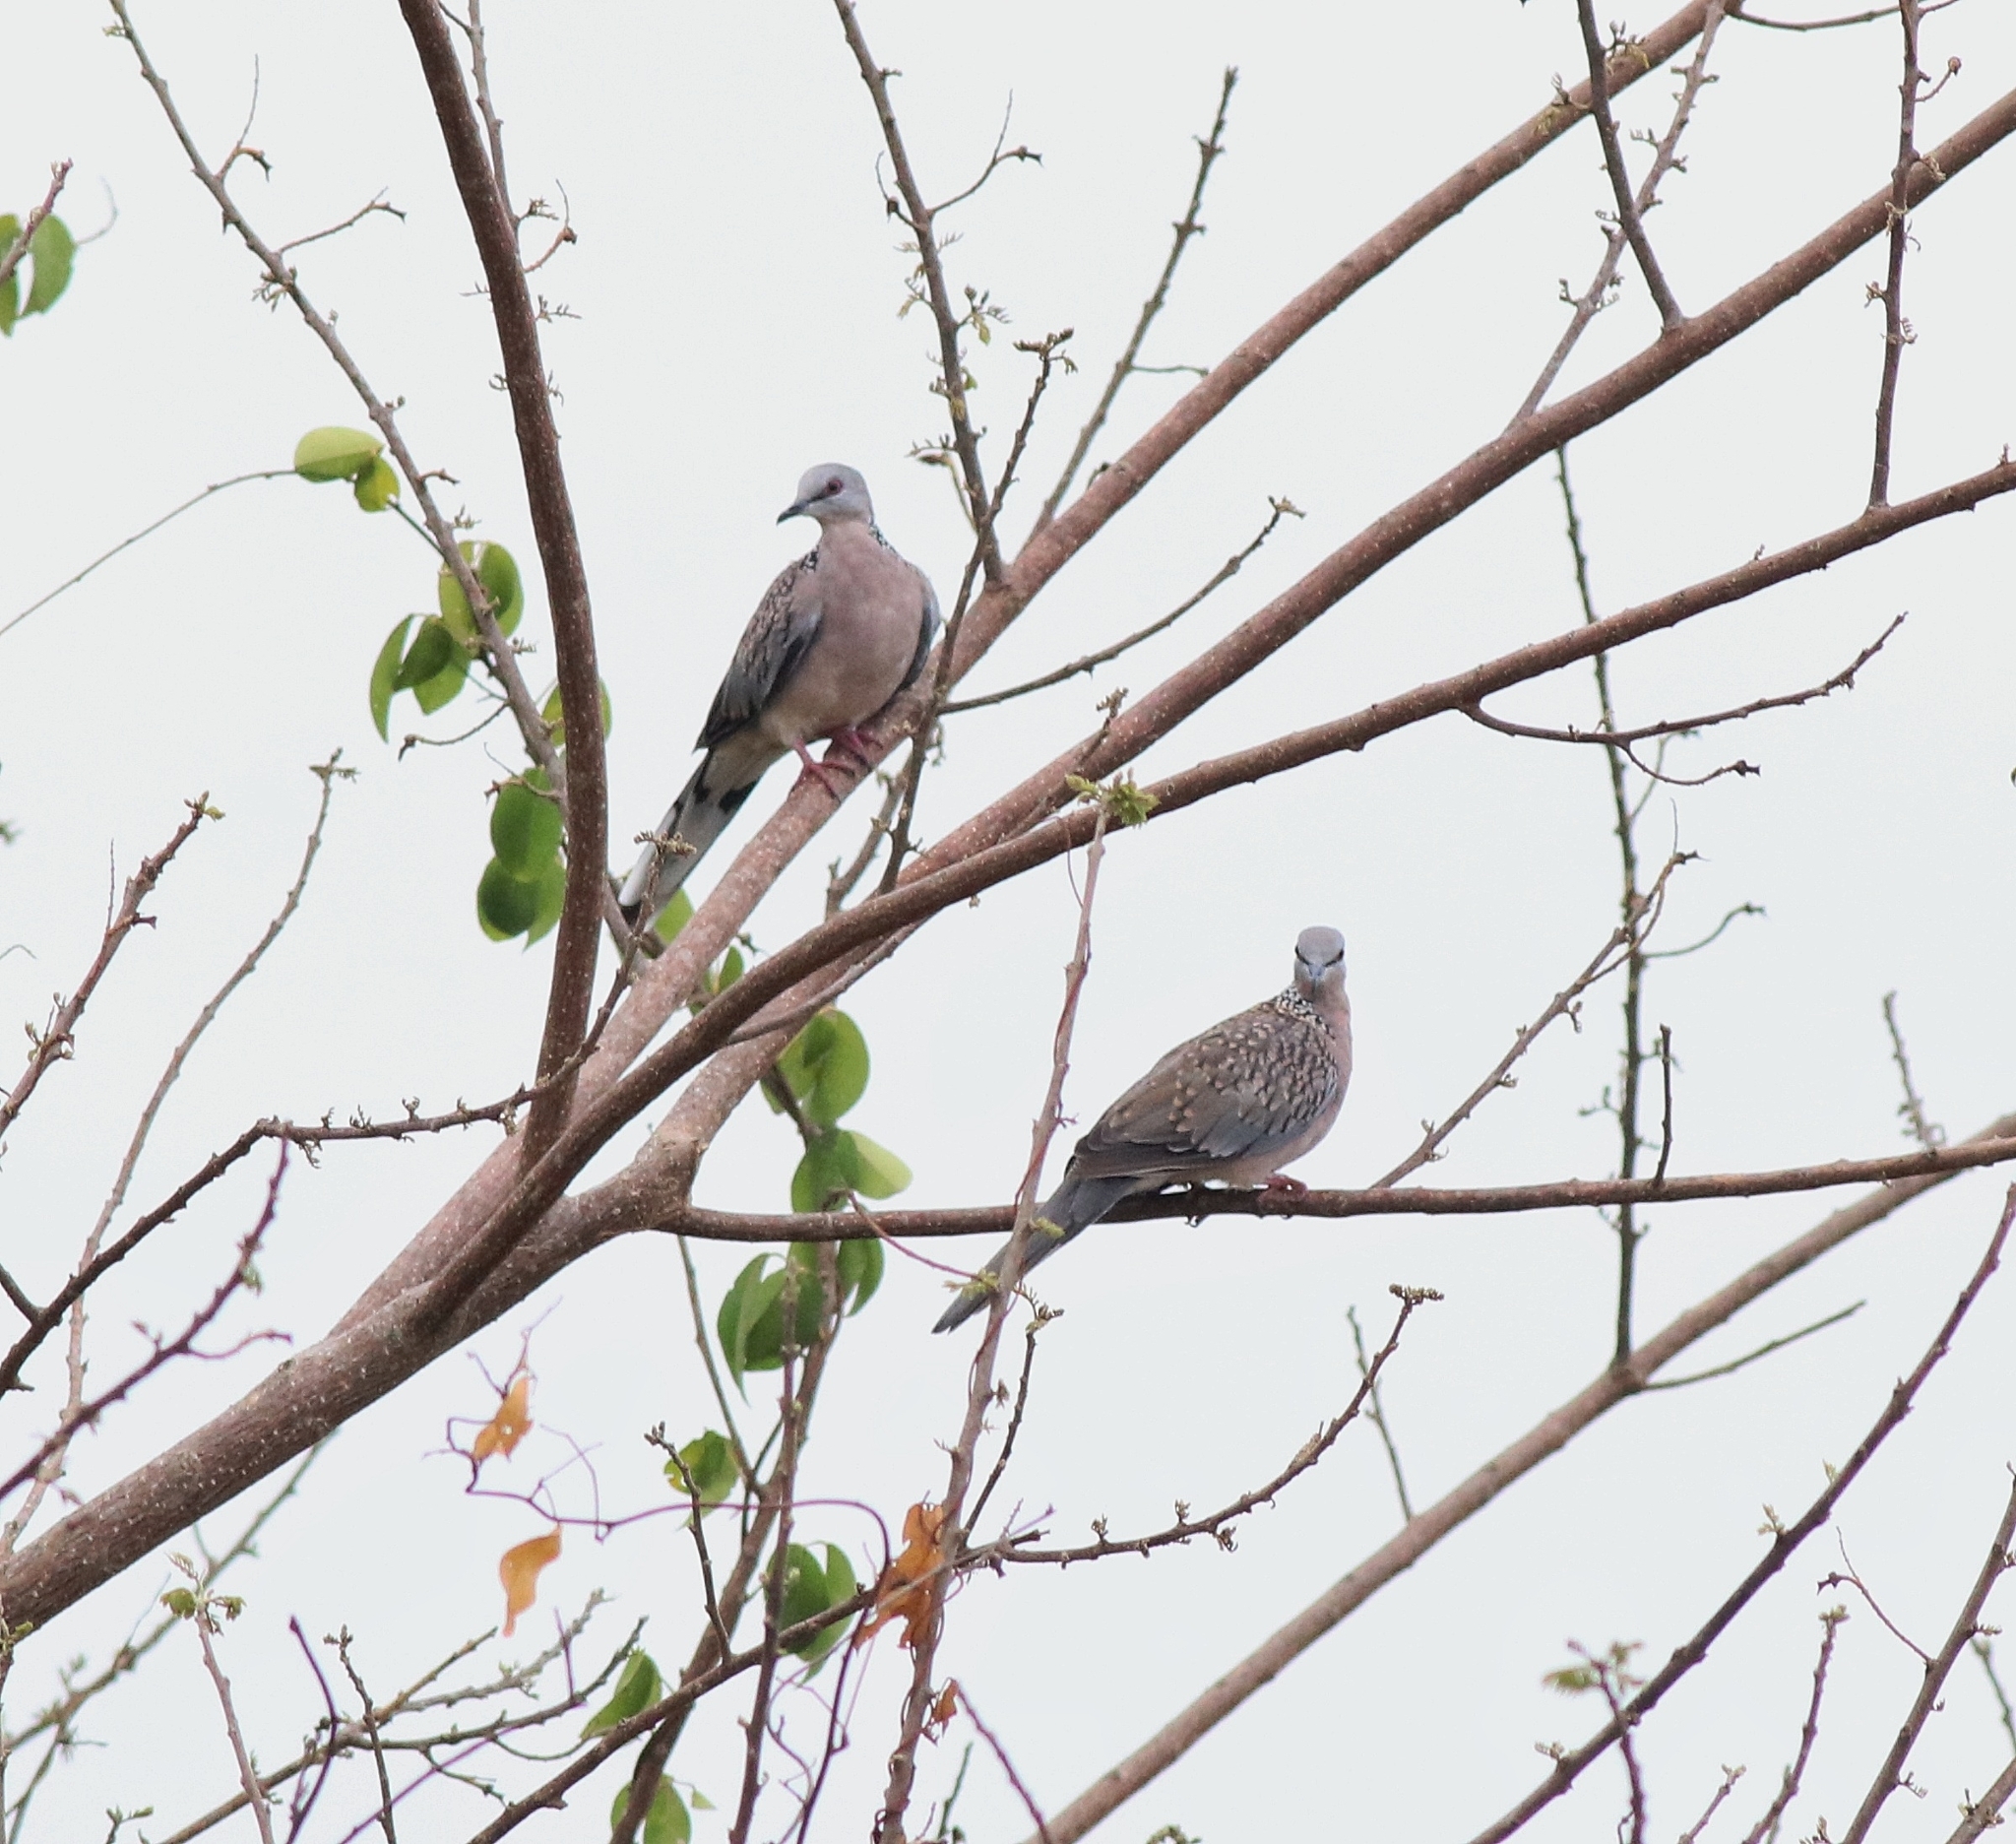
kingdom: Animalia
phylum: Chordata
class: Aves
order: Columbiformes
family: Columbidae
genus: Spilopelia
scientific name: Spilopelia chinensis
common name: Spotted dove
